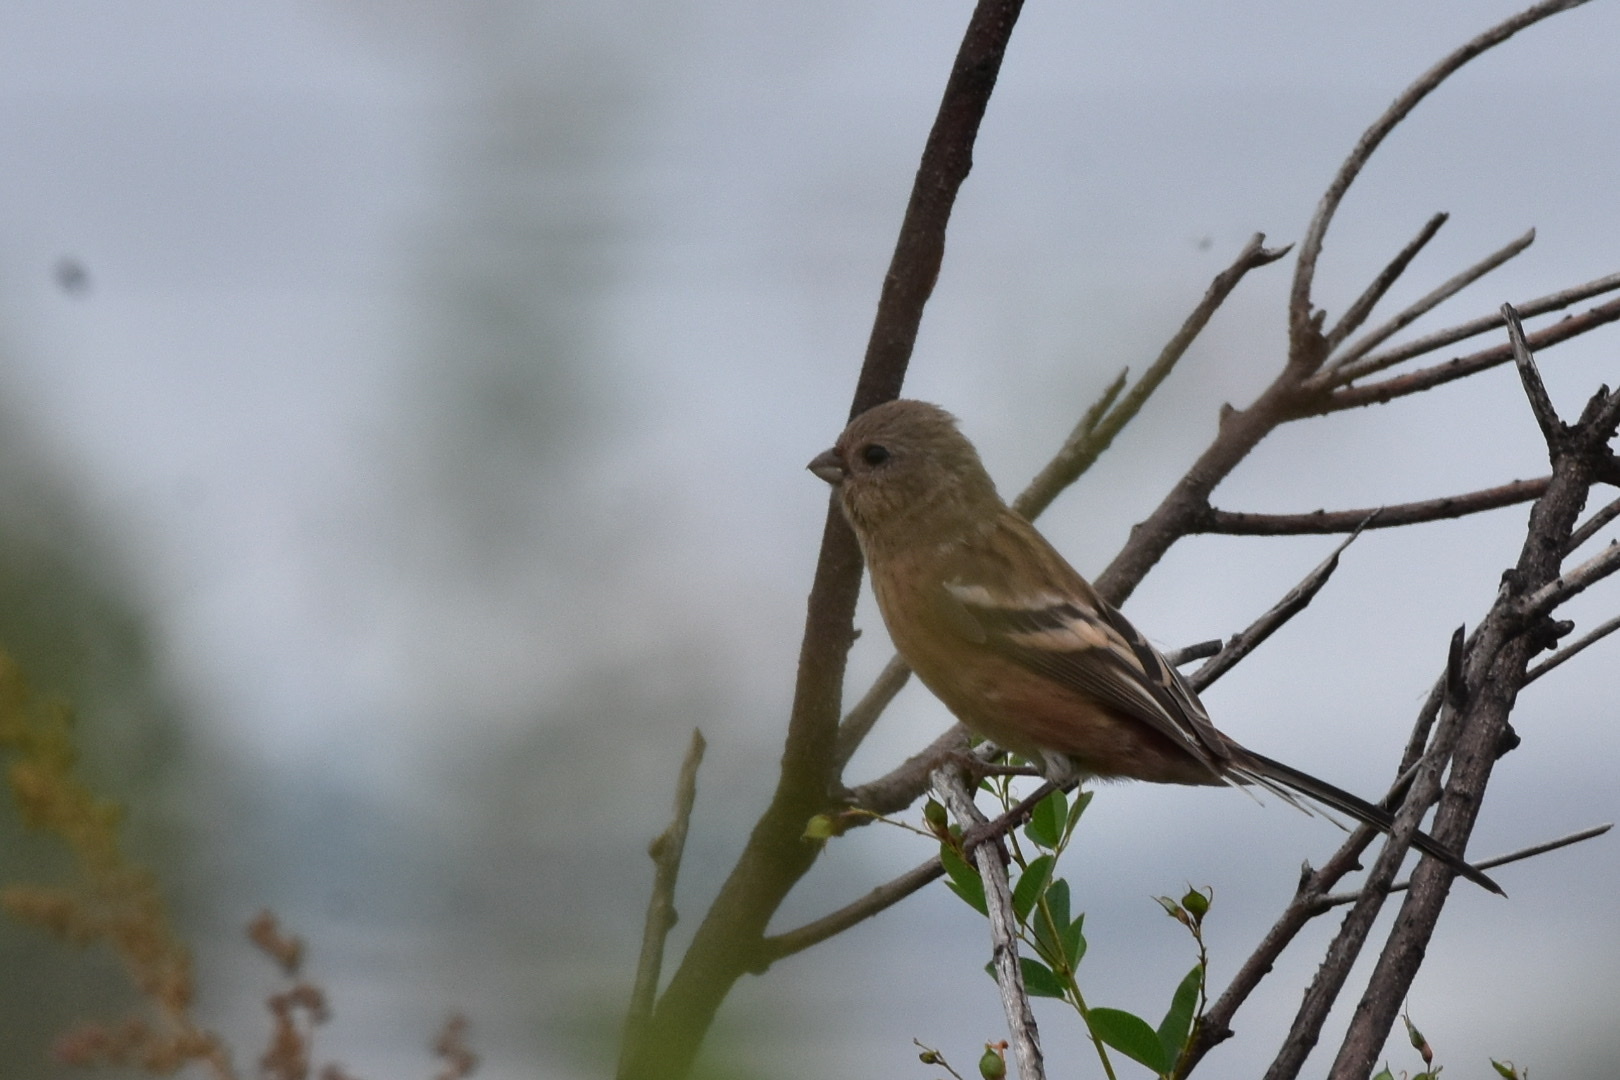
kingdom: Animalia
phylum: Chordata
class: Aves
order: Passeriformes
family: Fringillidae
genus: Carpodacus
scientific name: Carpodacus sibiricus
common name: Long-tailed rosefinch
